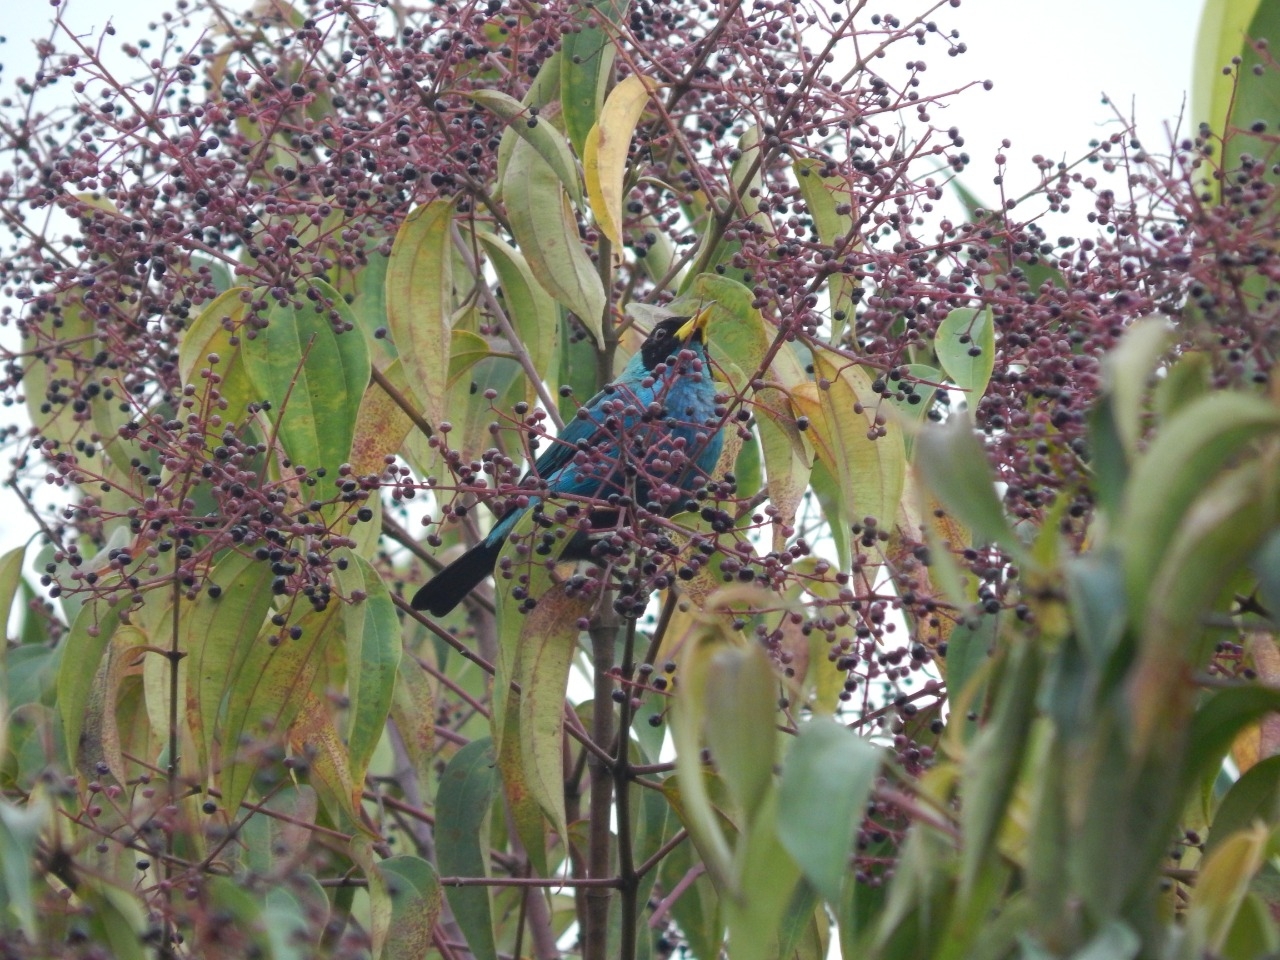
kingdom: Animalia
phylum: Chordata
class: Aves
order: Passeriformes
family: Thraupidae
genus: Chlorophanes
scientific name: Chlorophanes spiza
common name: Green honeycreeper
